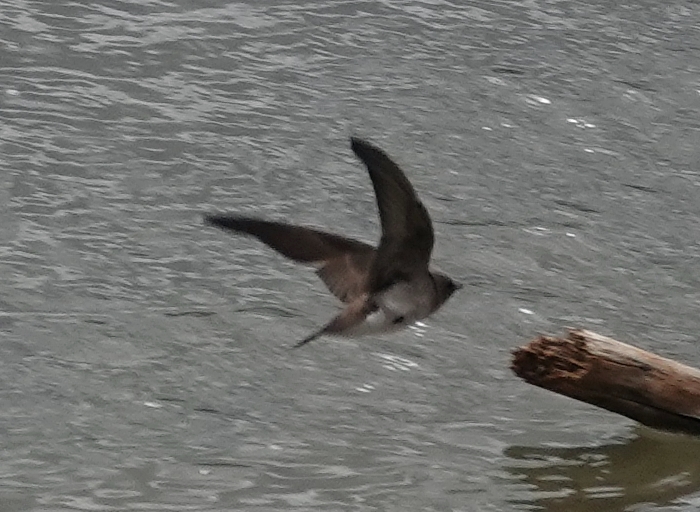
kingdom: Animalia
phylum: Chordata
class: Aves
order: Passeriformes
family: Hirundinidae
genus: Stelgidopteryx
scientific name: Stelgidopteryx serripennis
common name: Northern rough-winged swallow
